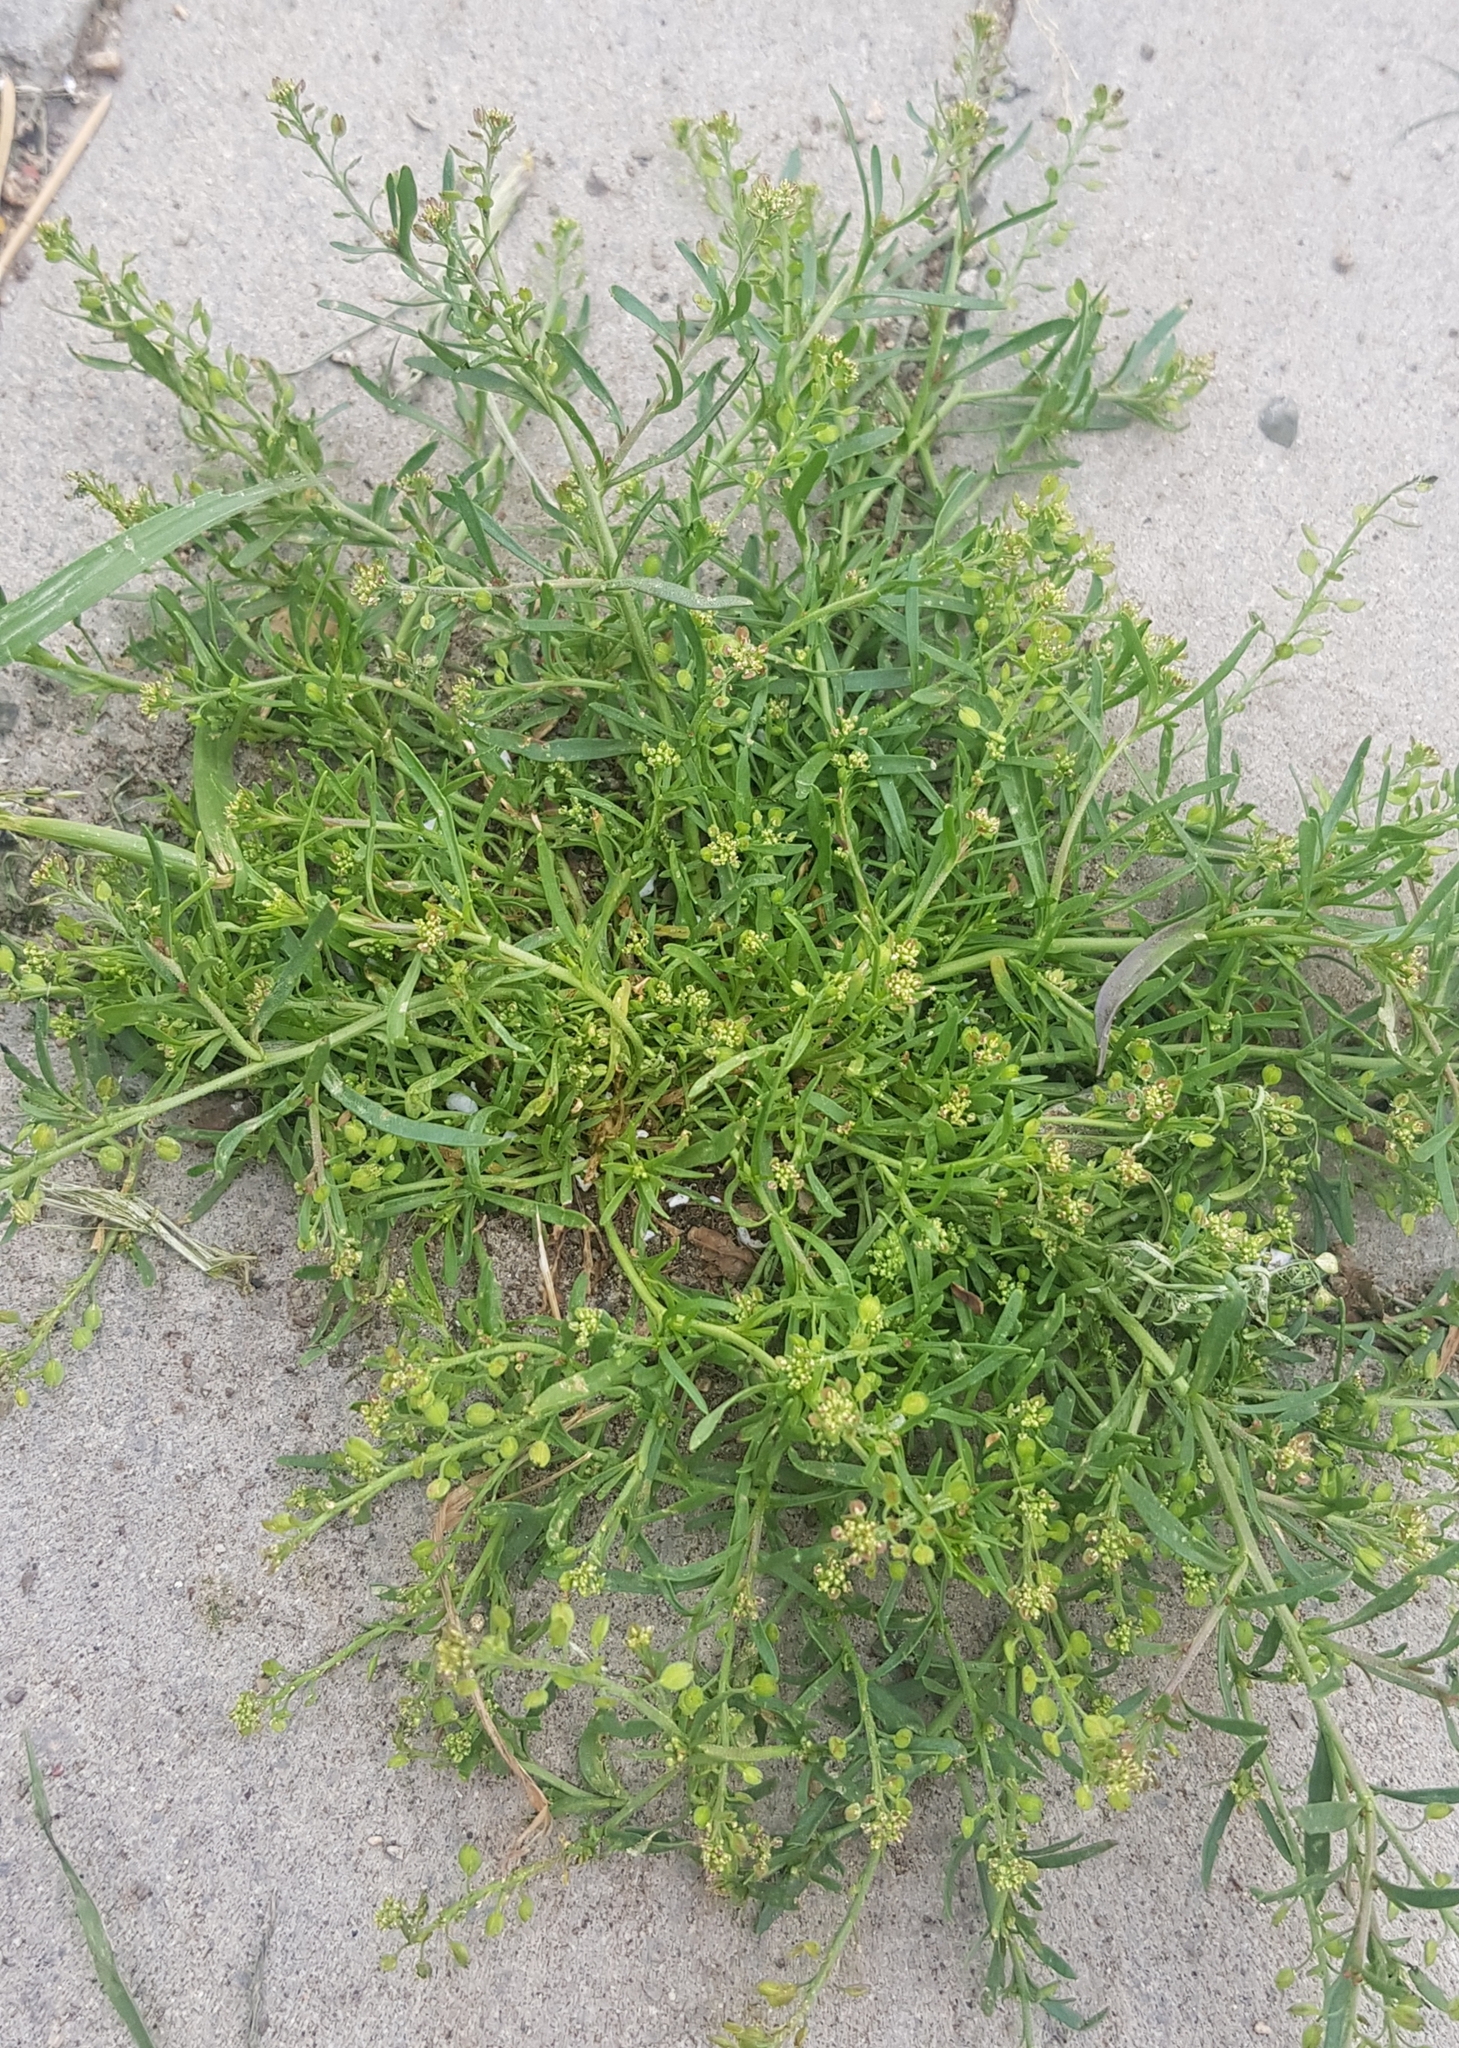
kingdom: Plantae
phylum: Tracheophyta
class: Magnoliopsida
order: Brassicales
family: Brassicaceae
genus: Lepidium
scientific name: Lepidium ruderale
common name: Narrow-leaved pepperwort
